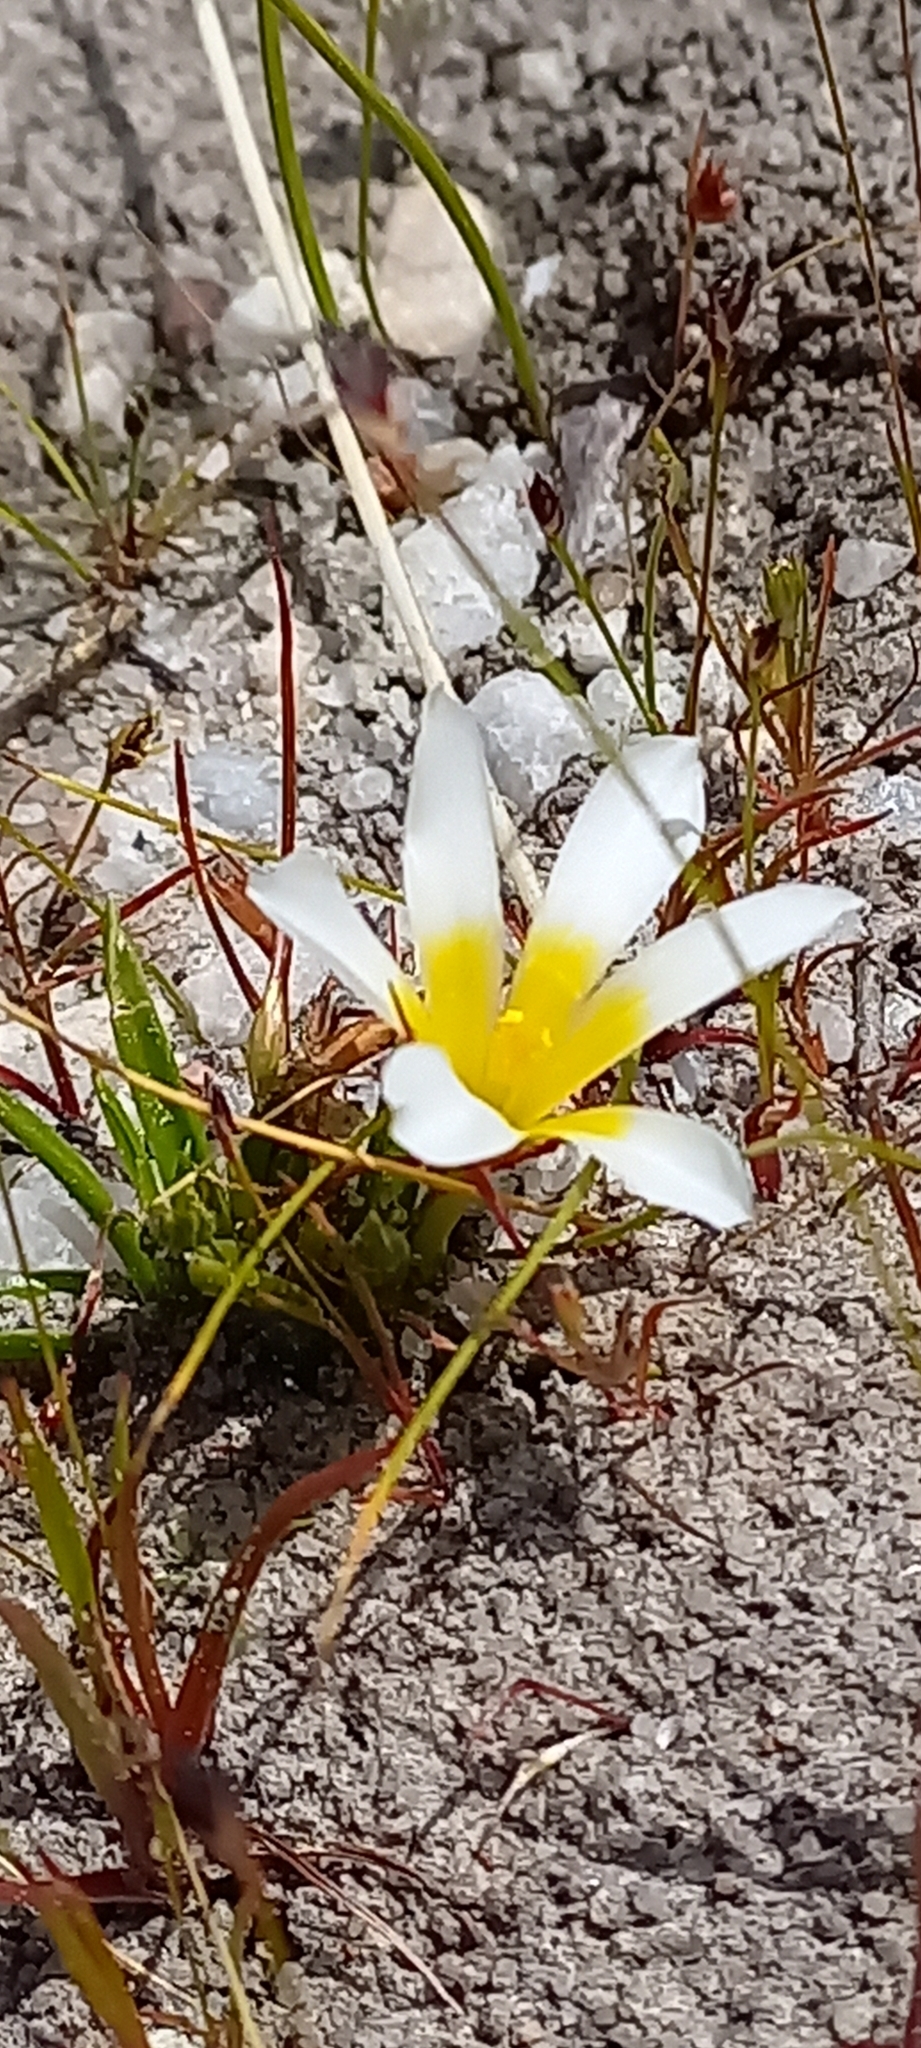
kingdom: Plantae
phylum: Tracheophyta
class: Liliopsida
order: Asparagales
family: Iridaceae
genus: Moraea
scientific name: Moraea luteoalba
